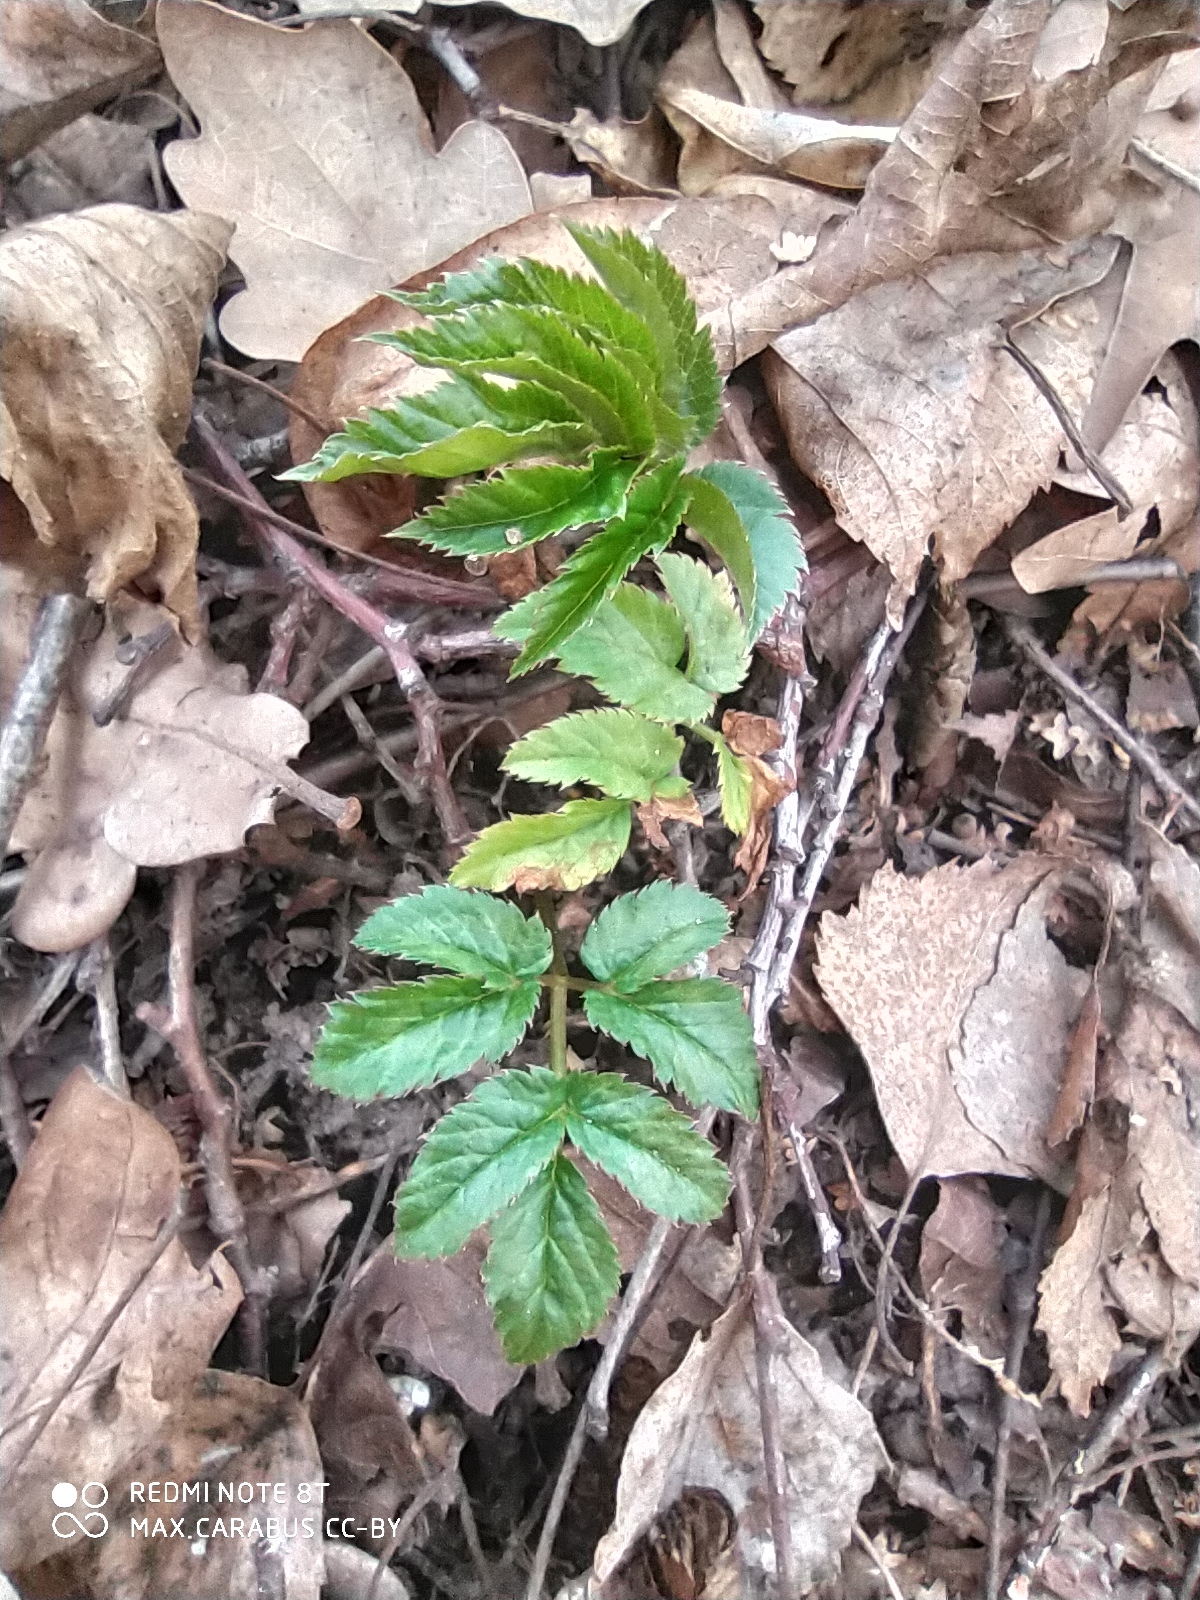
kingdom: Plantae
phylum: Tracheophyta
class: Magnoliopsida
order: Apiales
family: Apiaceae
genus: Aegopodium
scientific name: Aegopodium podagraria
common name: Ground-elder
